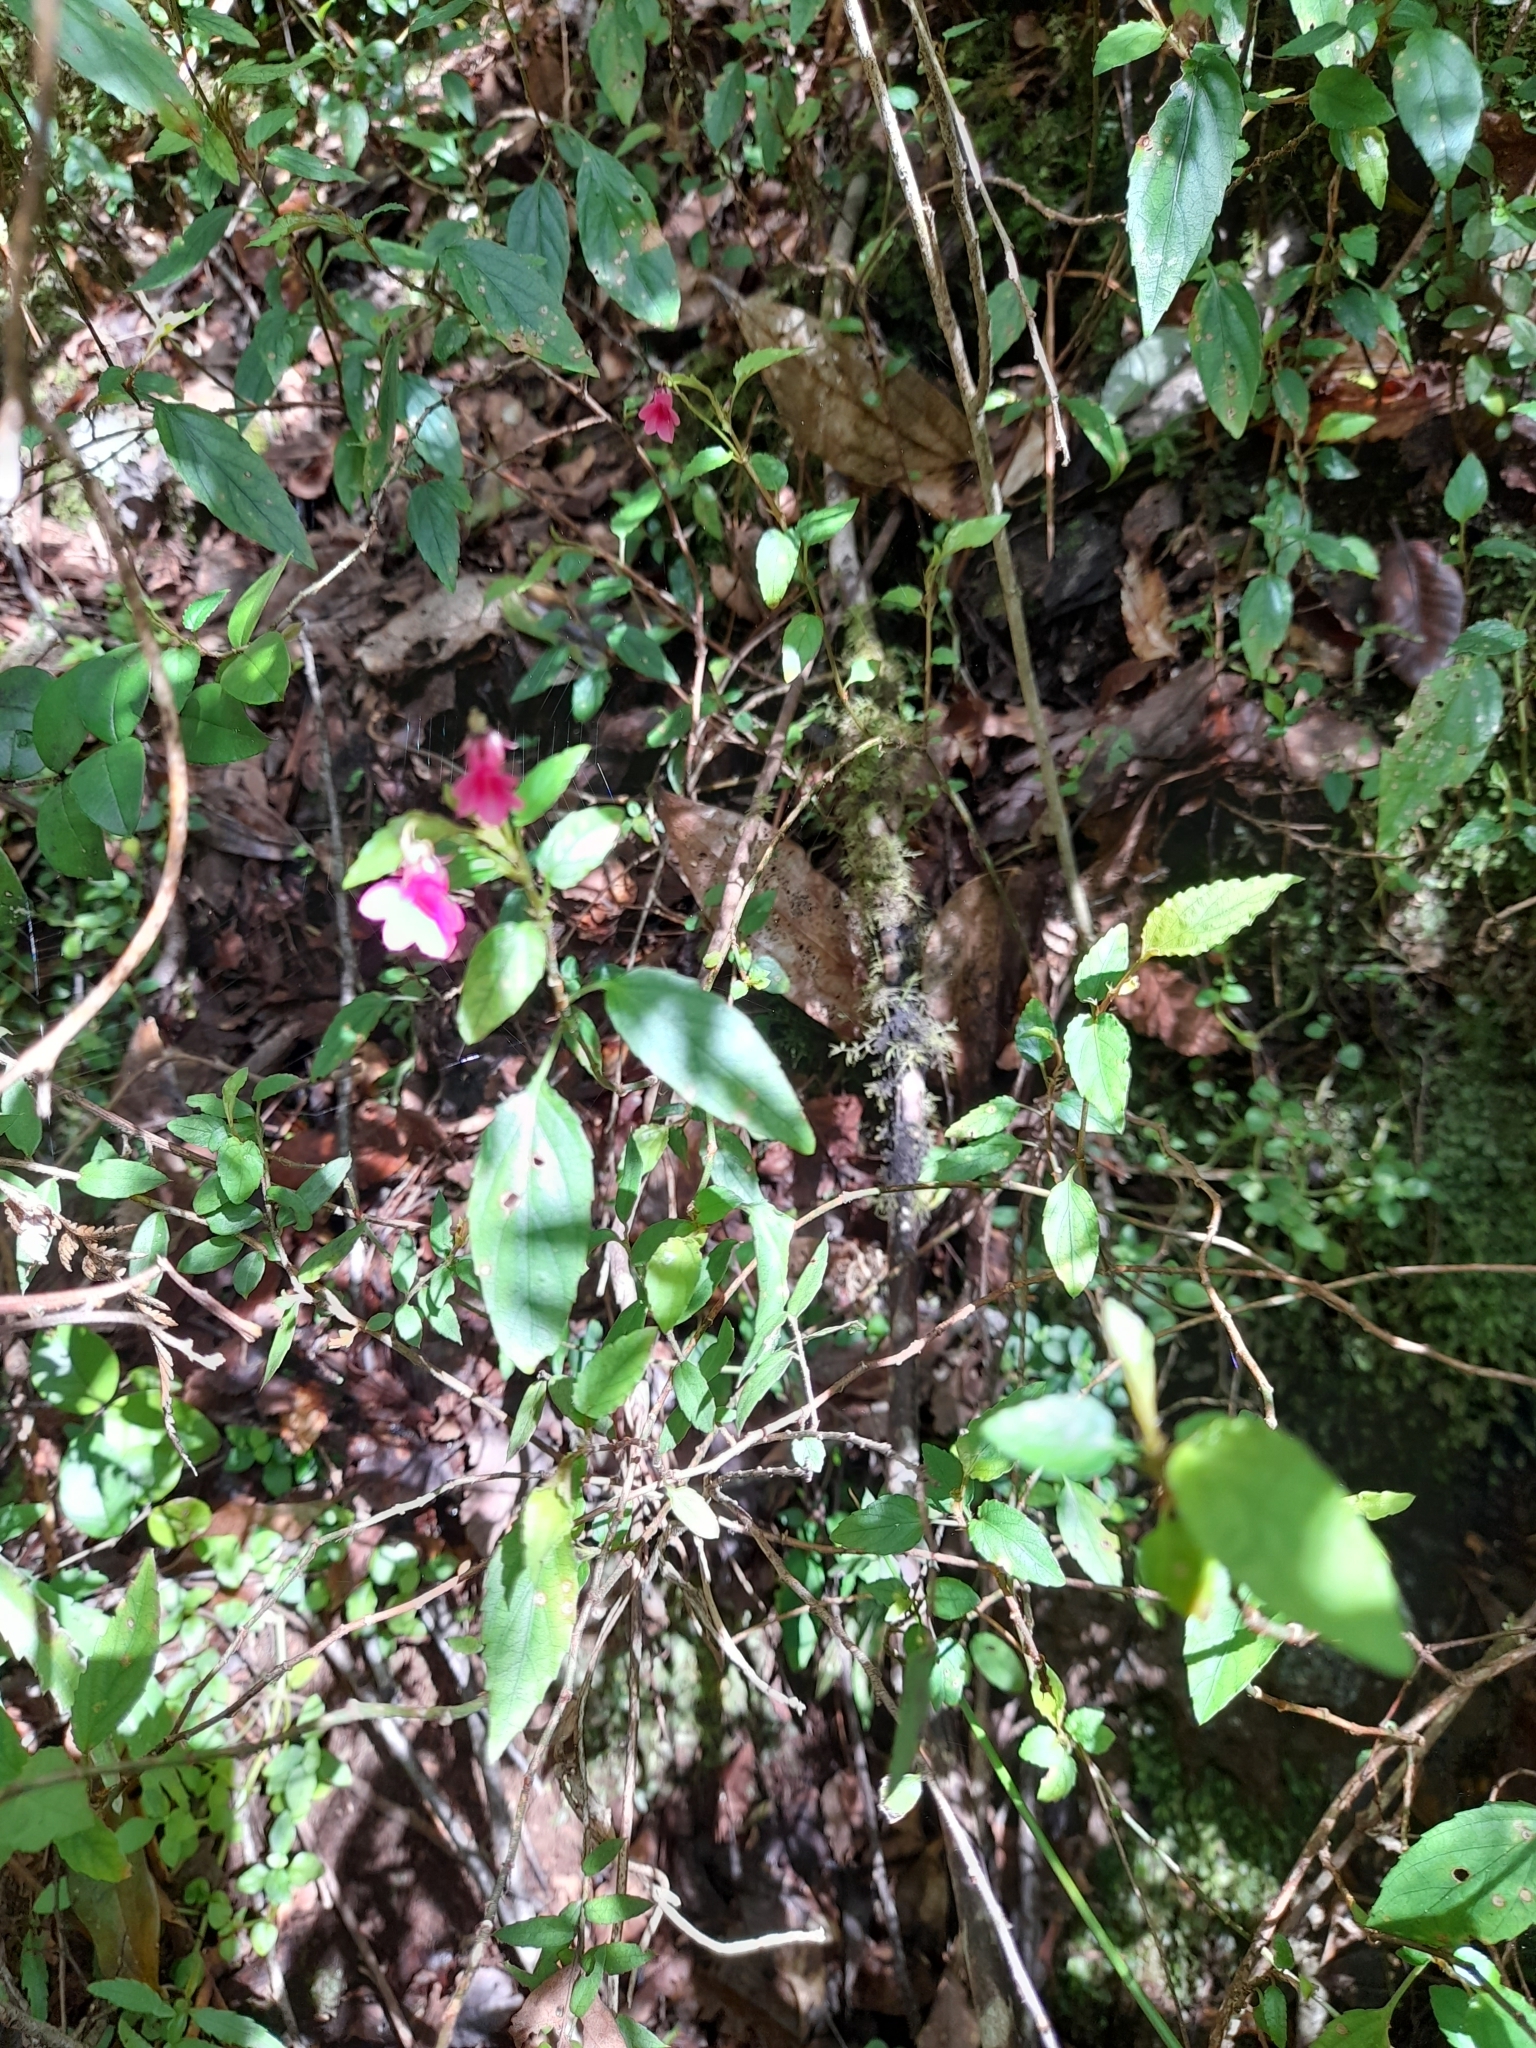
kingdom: Plantae
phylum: Tracheophyta
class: Magnoliopsida
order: Malpighiales
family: Violaceae
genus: Viola
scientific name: Viola rubella
